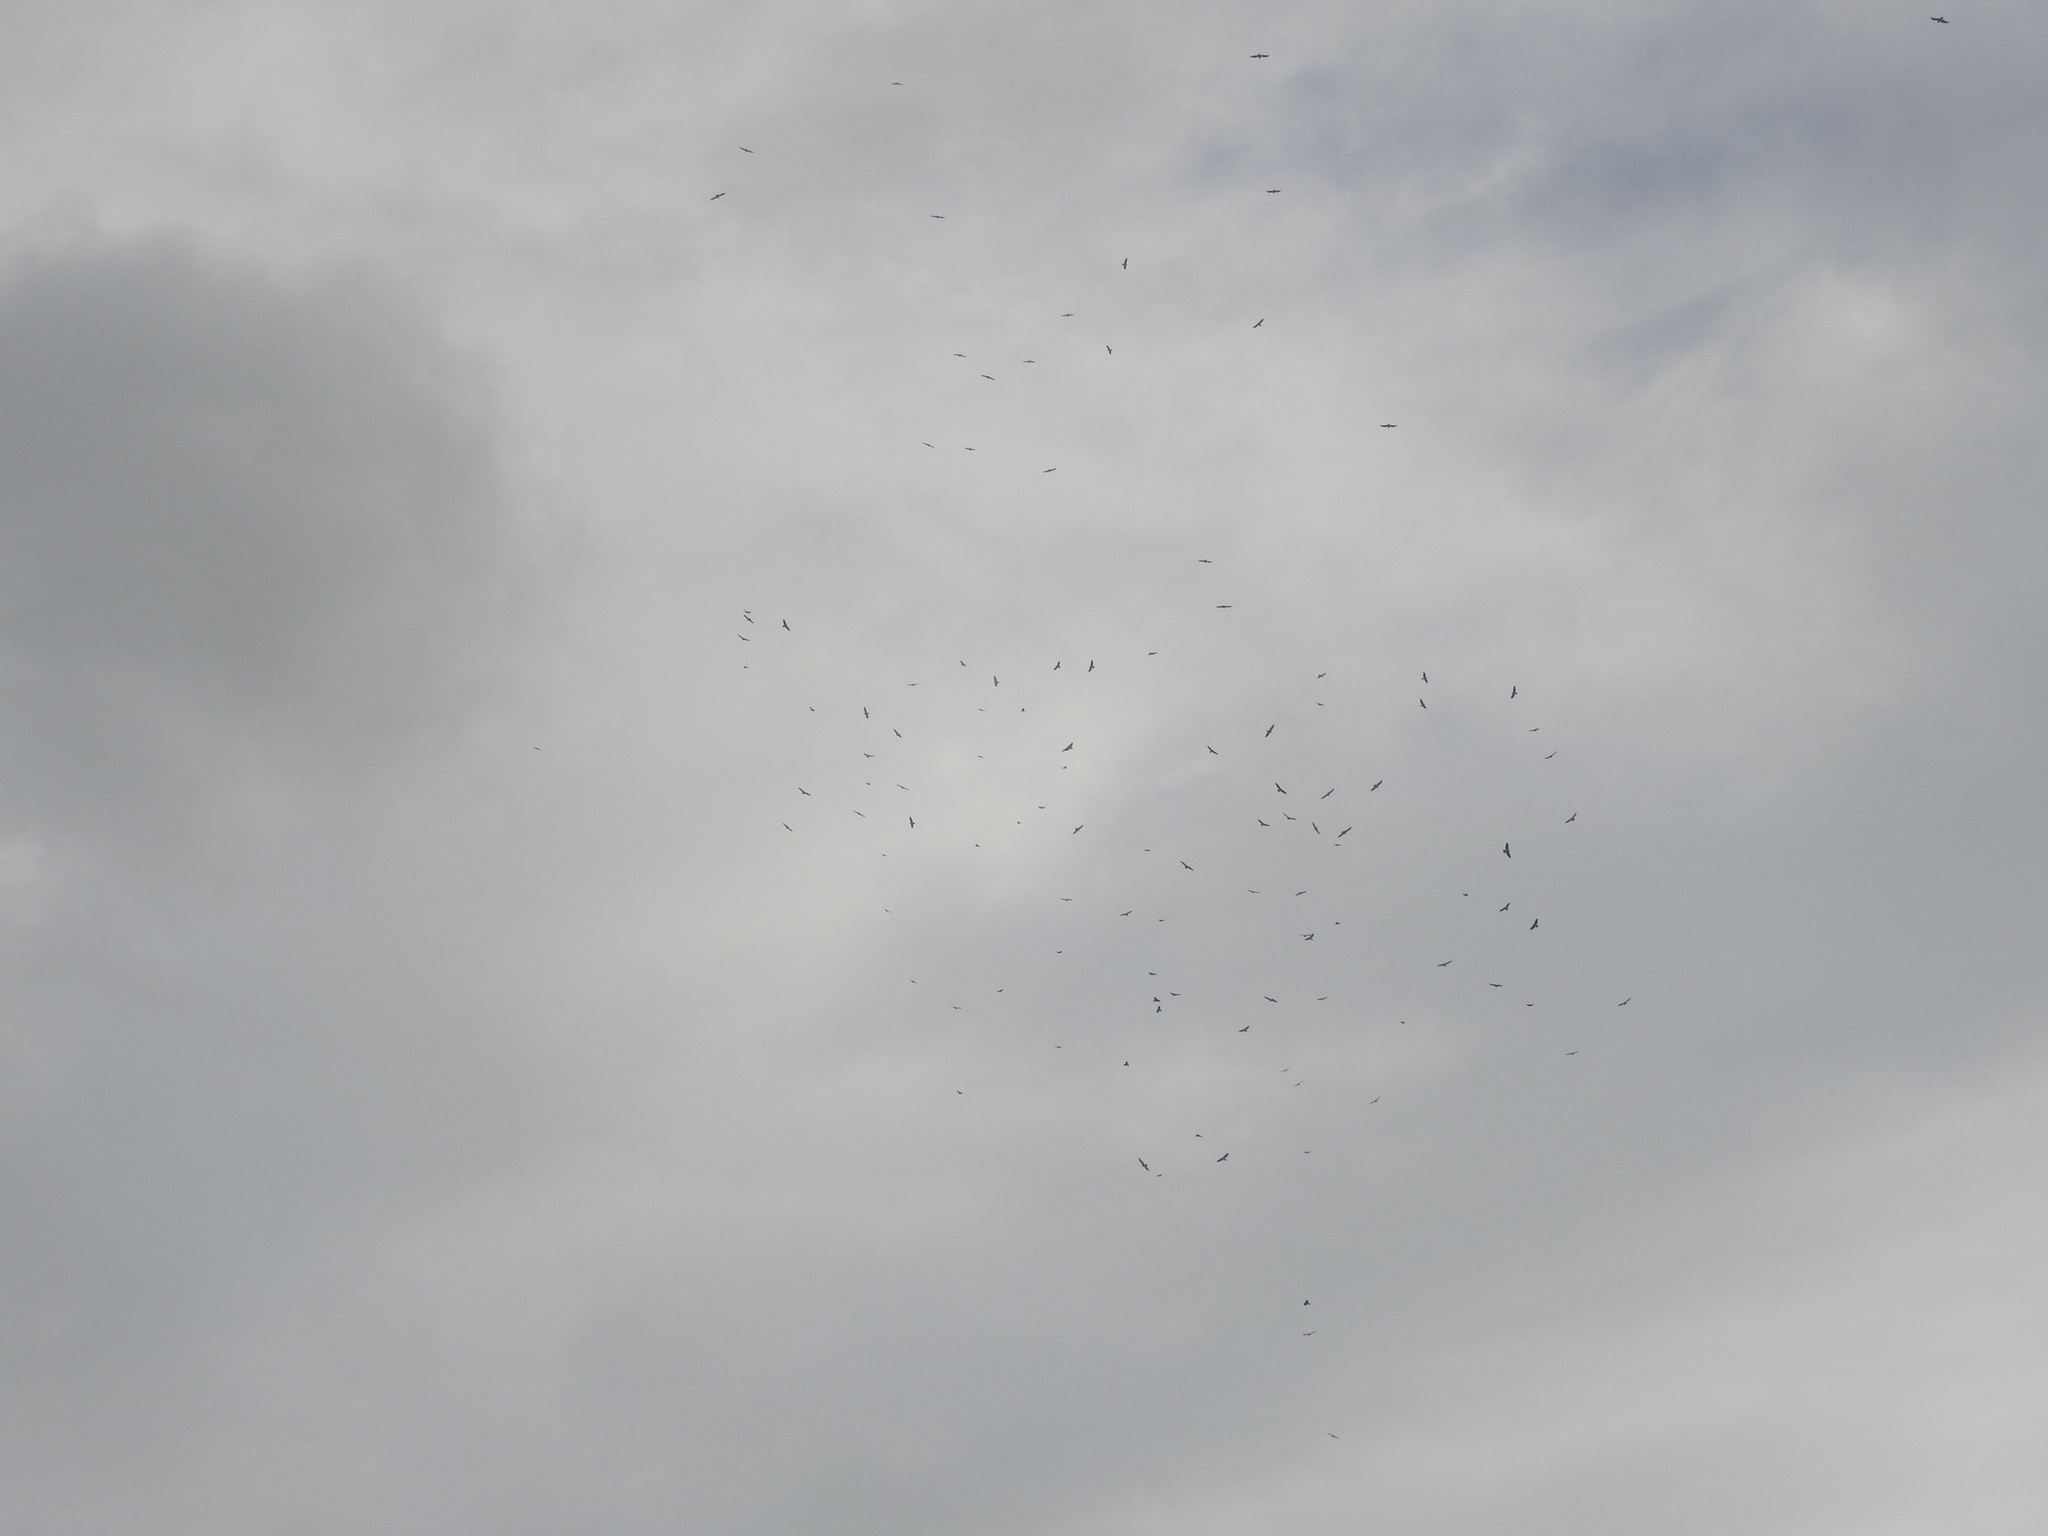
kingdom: Animalia
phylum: Chordata
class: Aves
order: Accipitriformes
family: Accipitridae
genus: Buteo
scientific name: Buteo swainsoni
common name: Swainson's hawk
